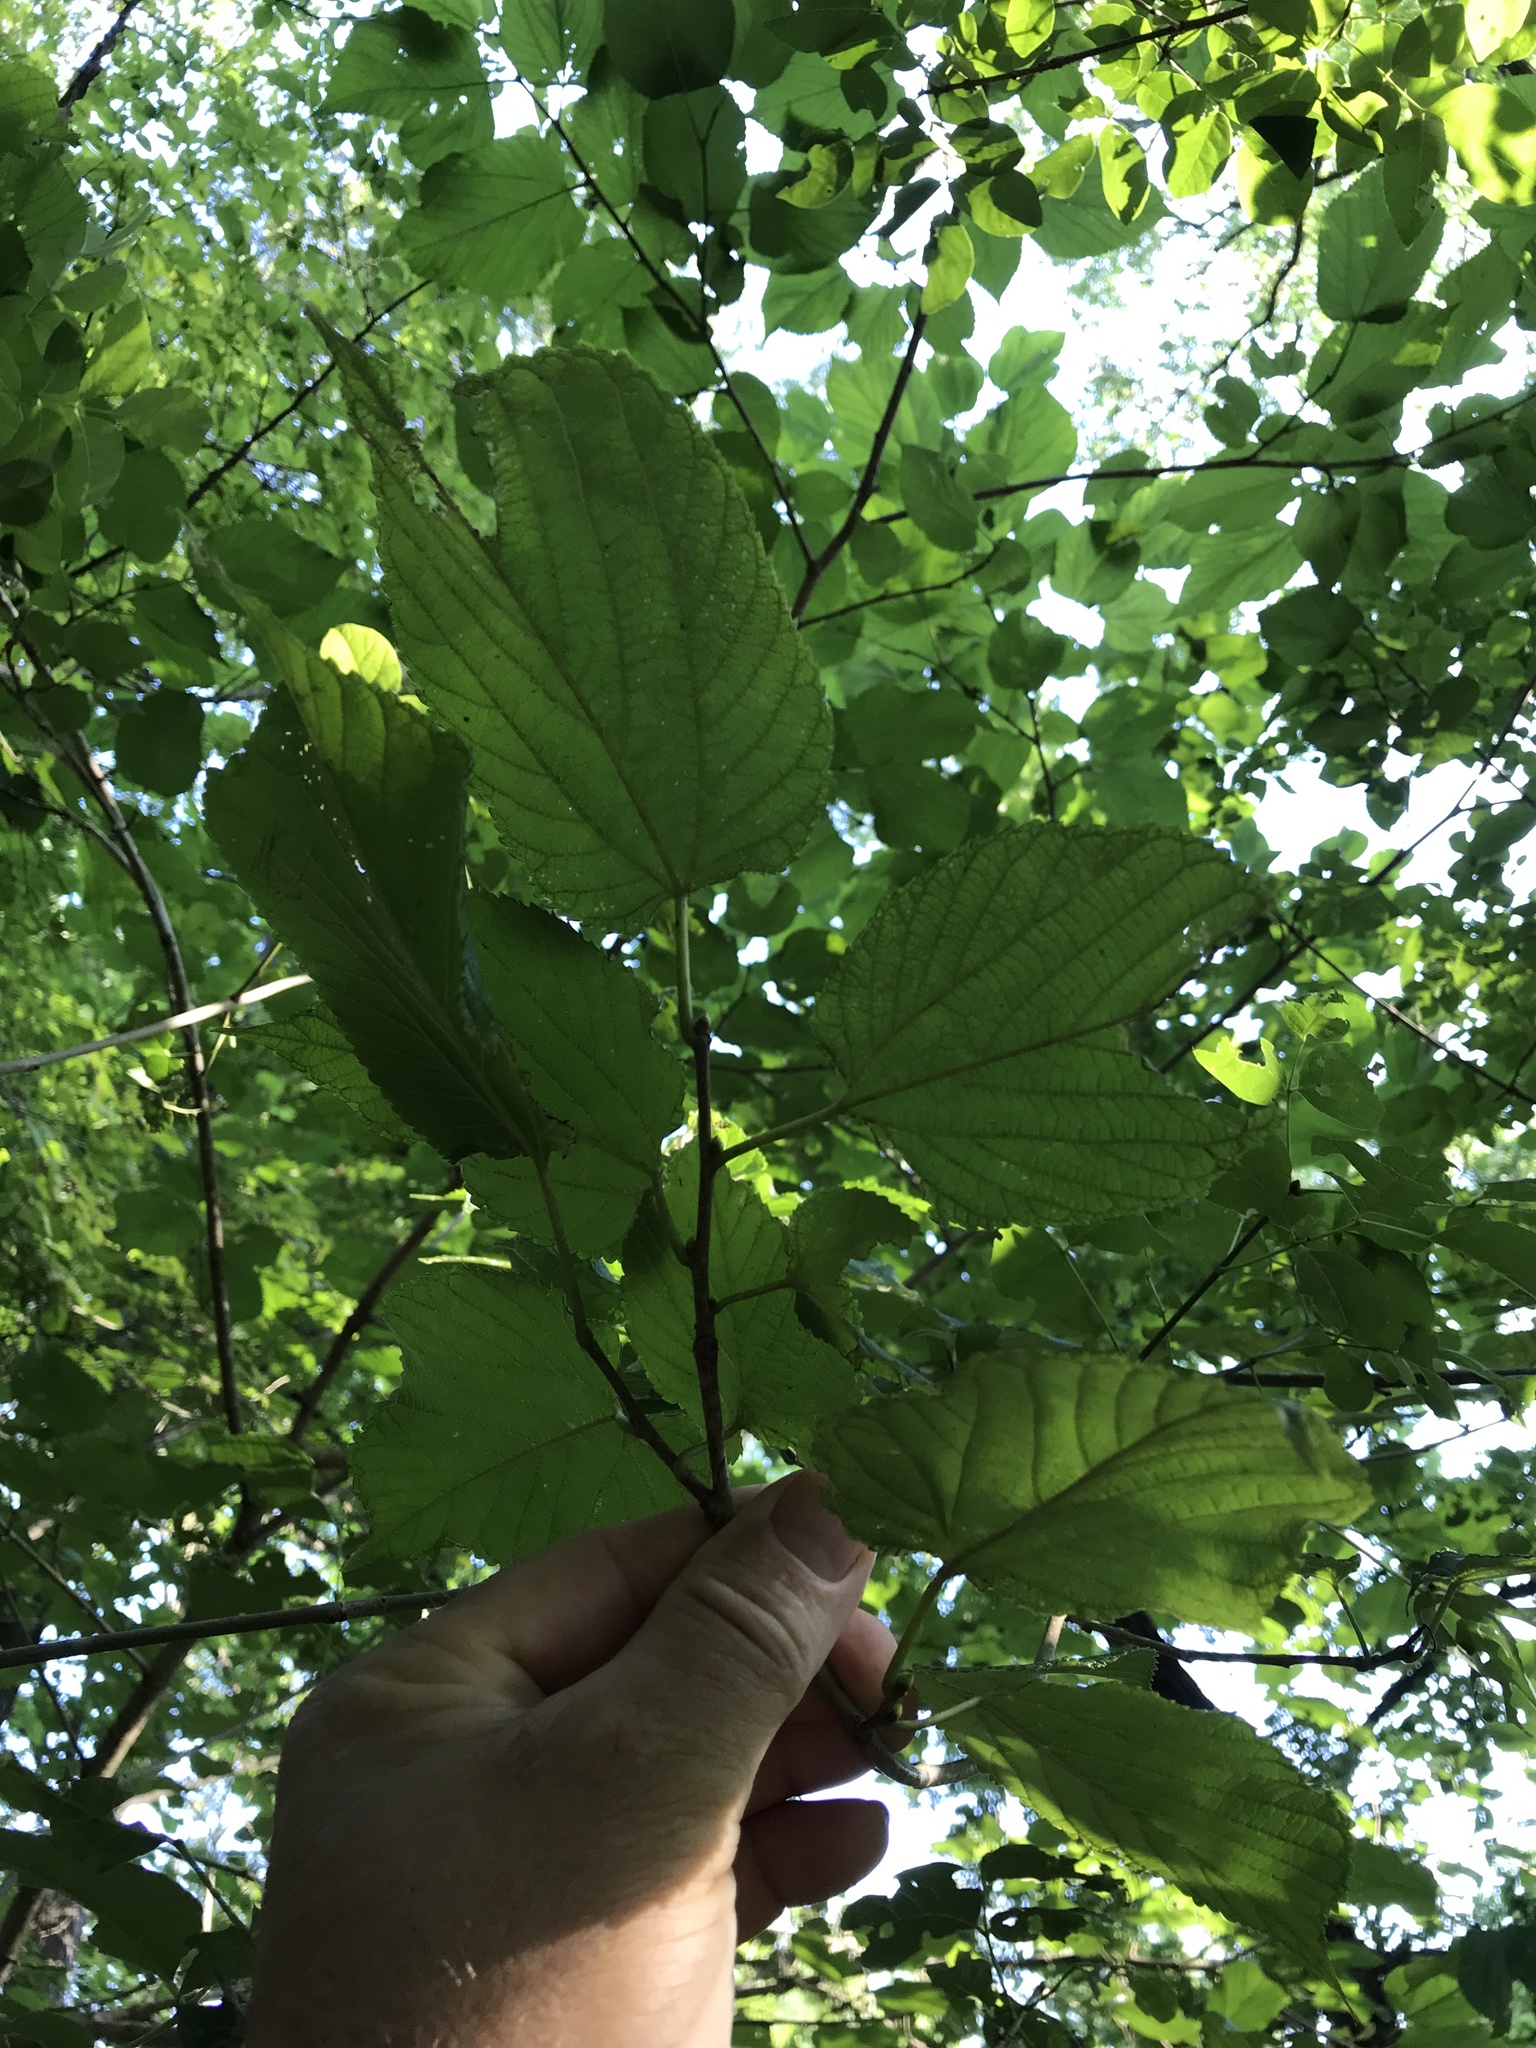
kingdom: Plantae
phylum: Tracheophyta
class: Magnoliopsida
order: Rosales
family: Moraceae
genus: Morus
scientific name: Morus rubra
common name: Red mulberry
